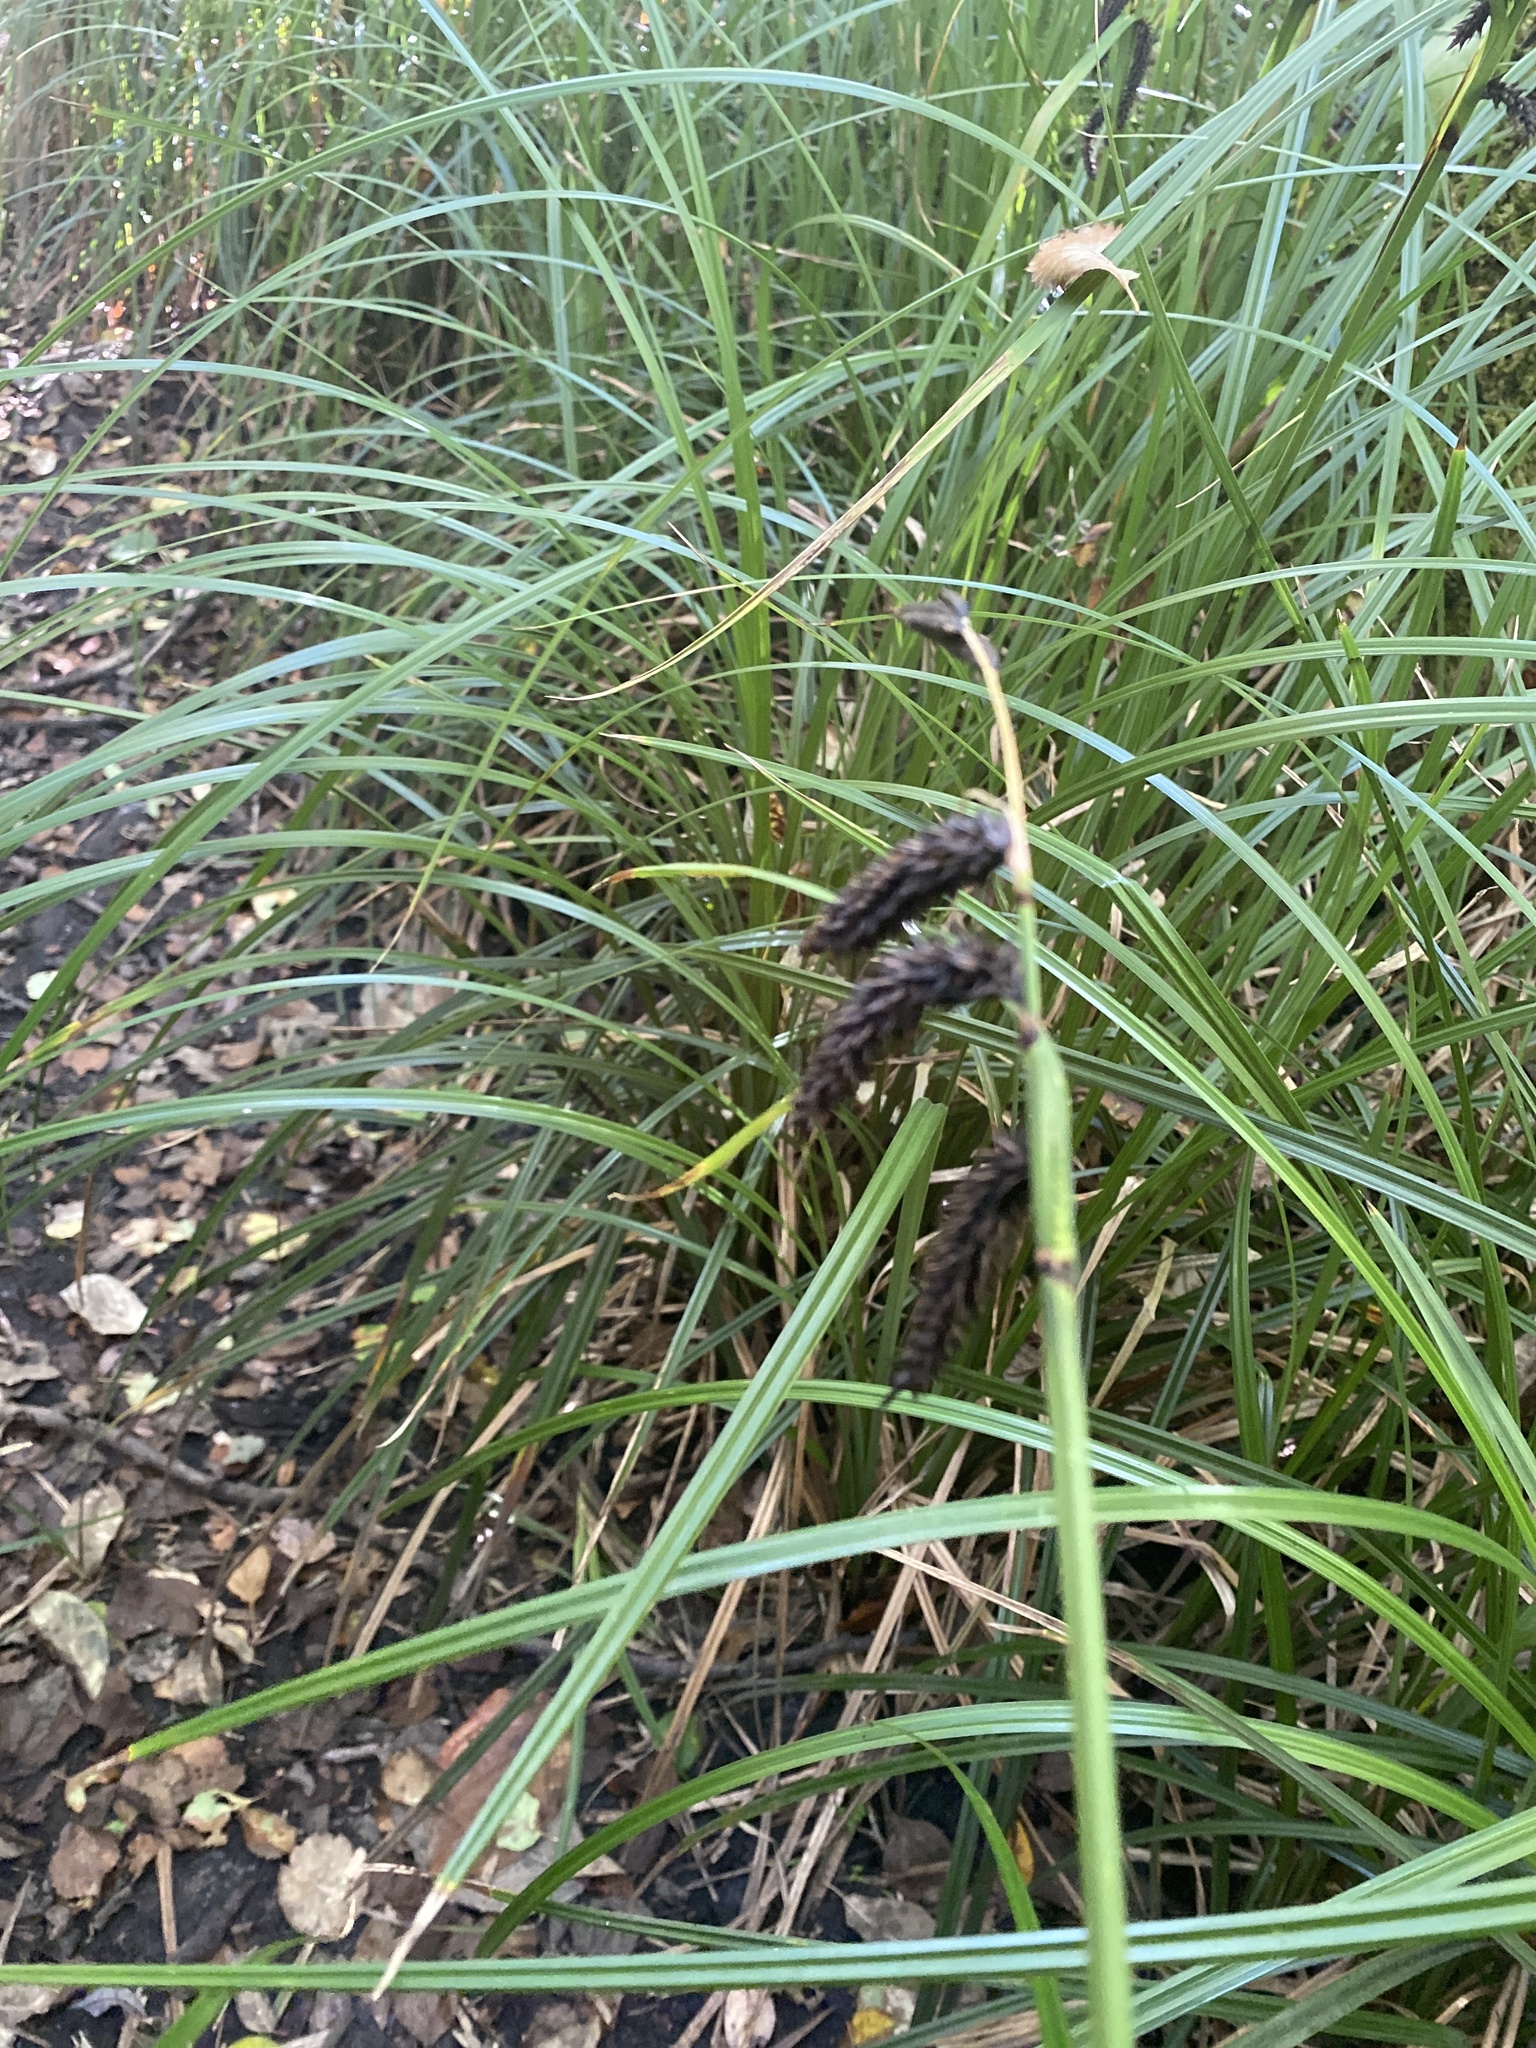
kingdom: Plantae
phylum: Tracheophyta
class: Liliopsida
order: Poales
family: Cyperaceae
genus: Carex
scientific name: Carex obnupta
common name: Slough sedge
